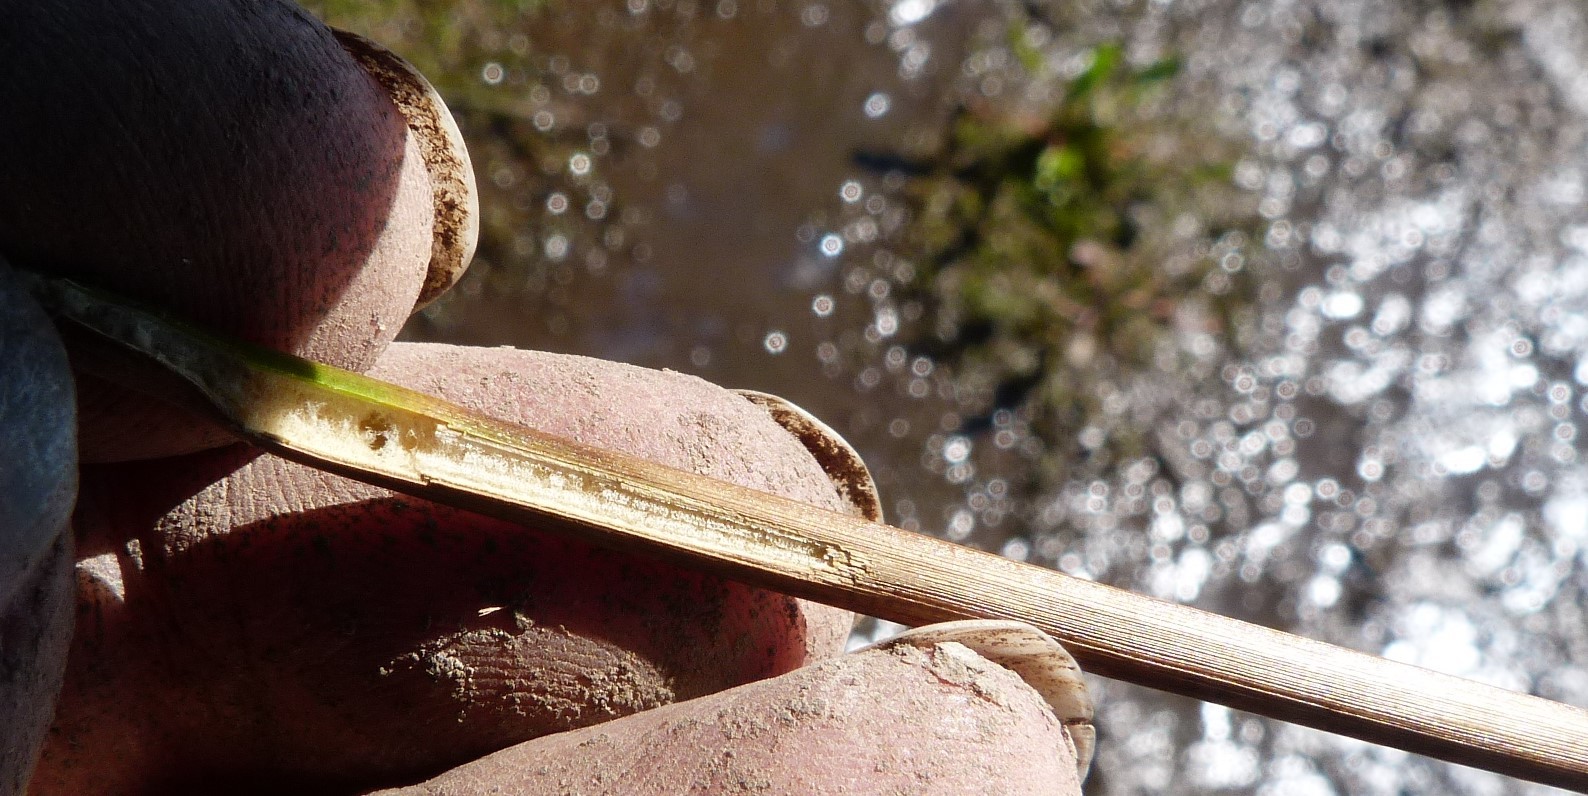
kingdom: Plantae
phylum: Tracheophyta
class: Liliopsida
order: Poales
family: Juncaceae
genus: Juncus
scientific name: Juncus pallidus
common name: Great soft-rush
